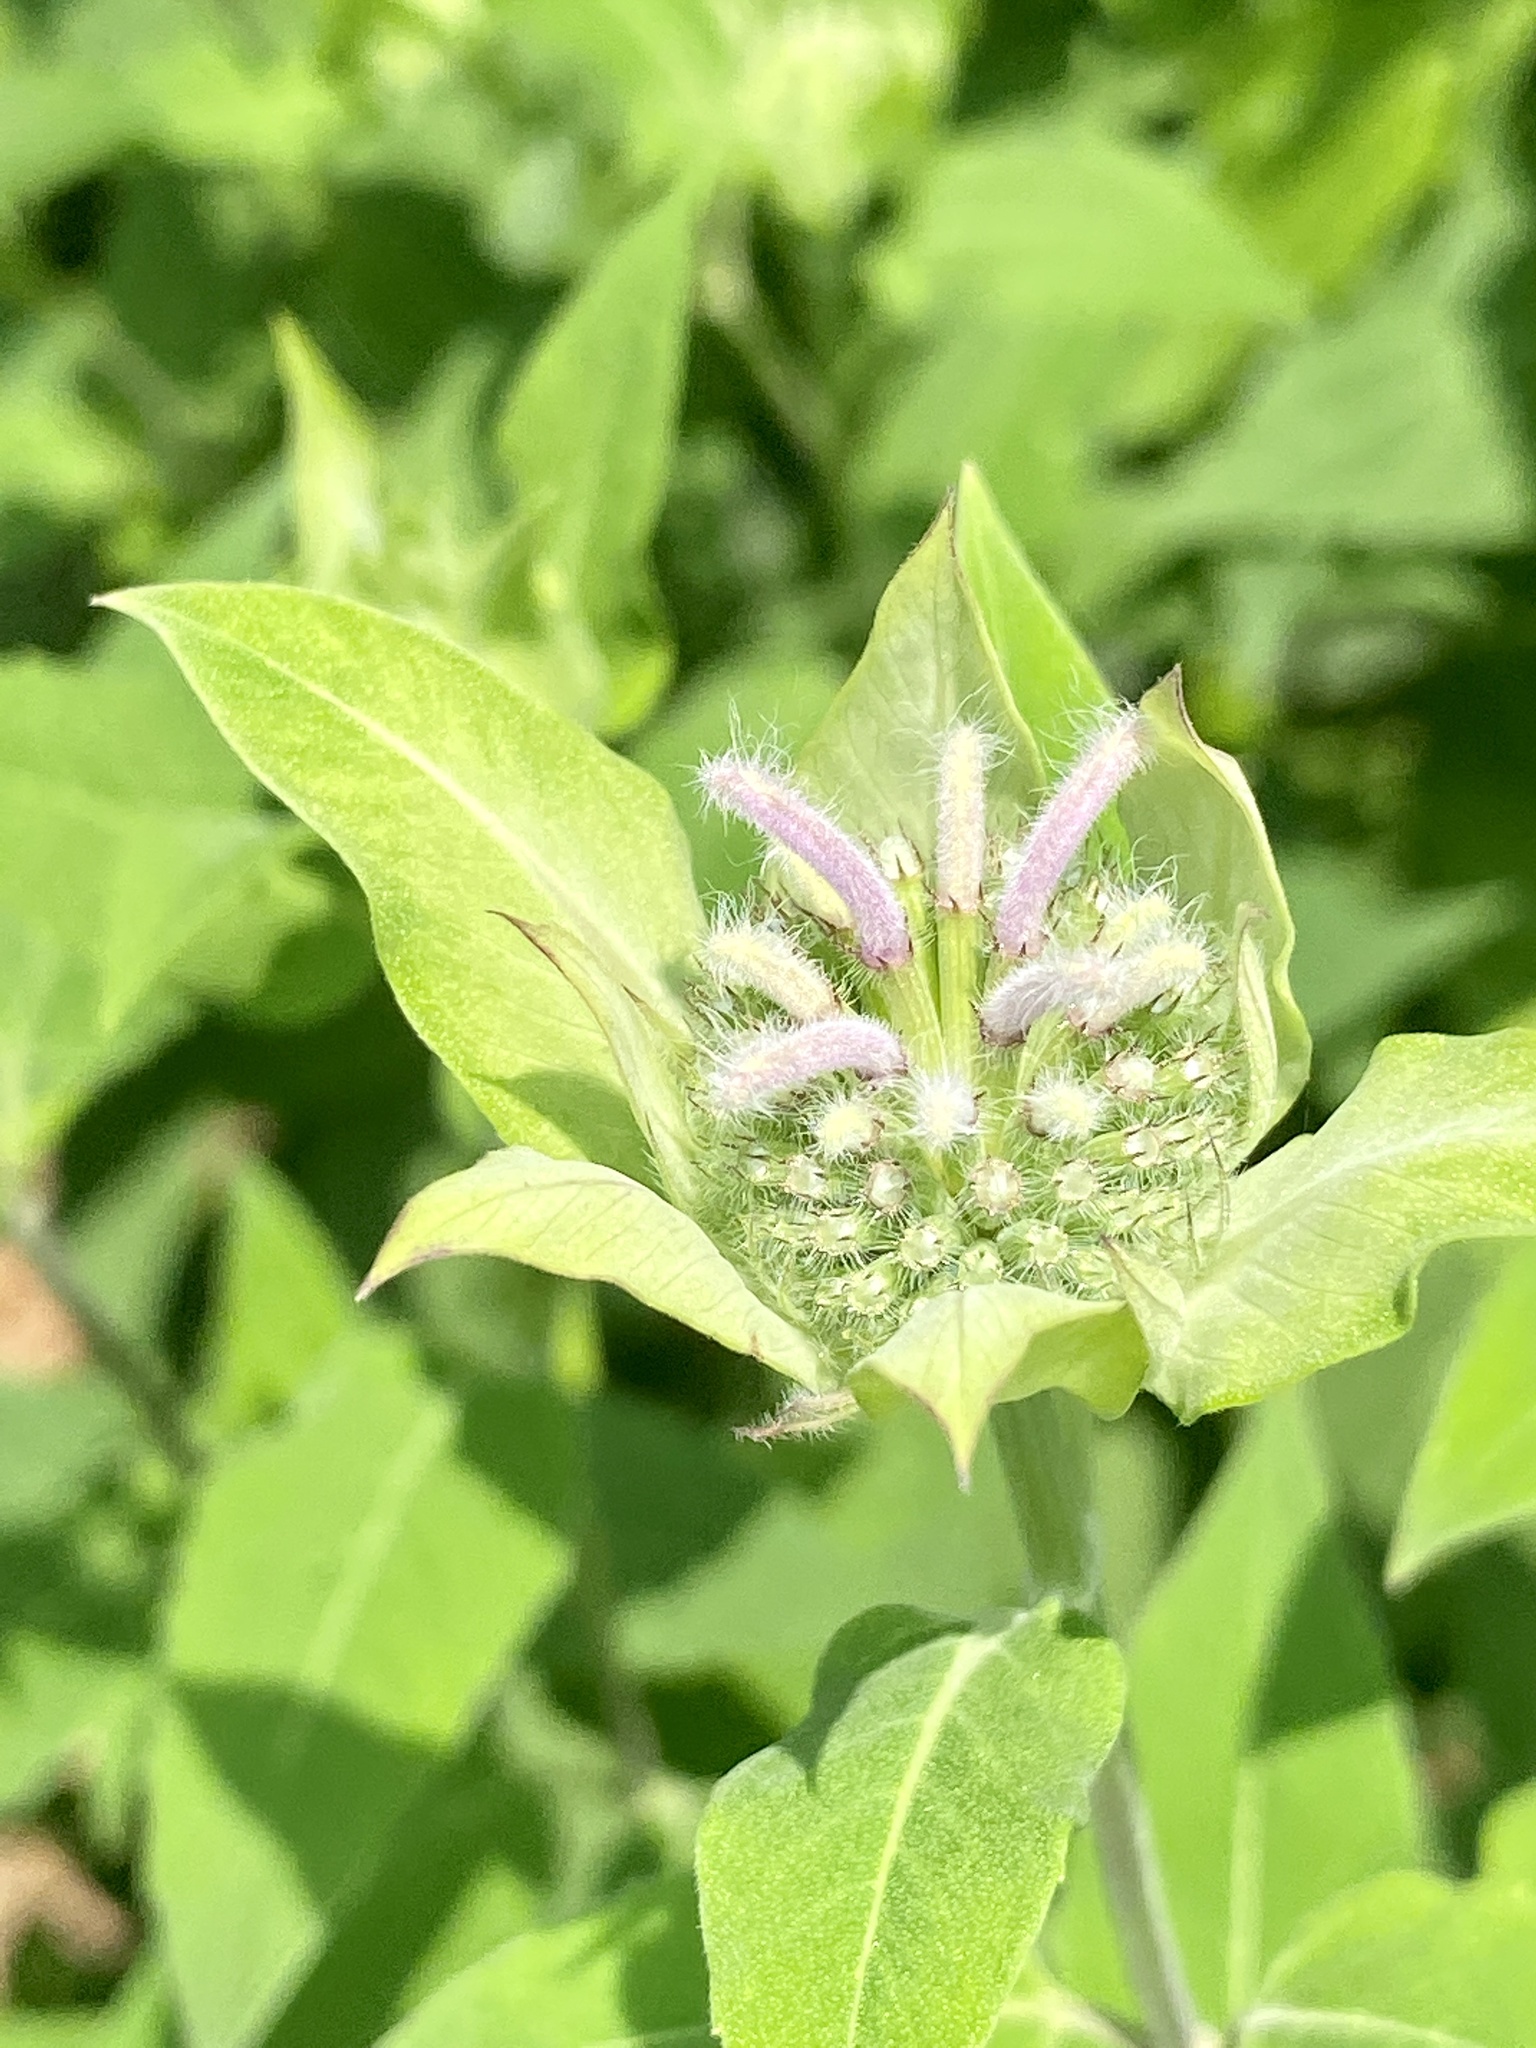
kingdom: Plantae
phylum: Tracheophyta
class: Magnoliopsida
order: Lamiales
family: Lamiaceae
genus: Monarda
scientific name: Monarda fistulosa
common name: Purple beebalm
